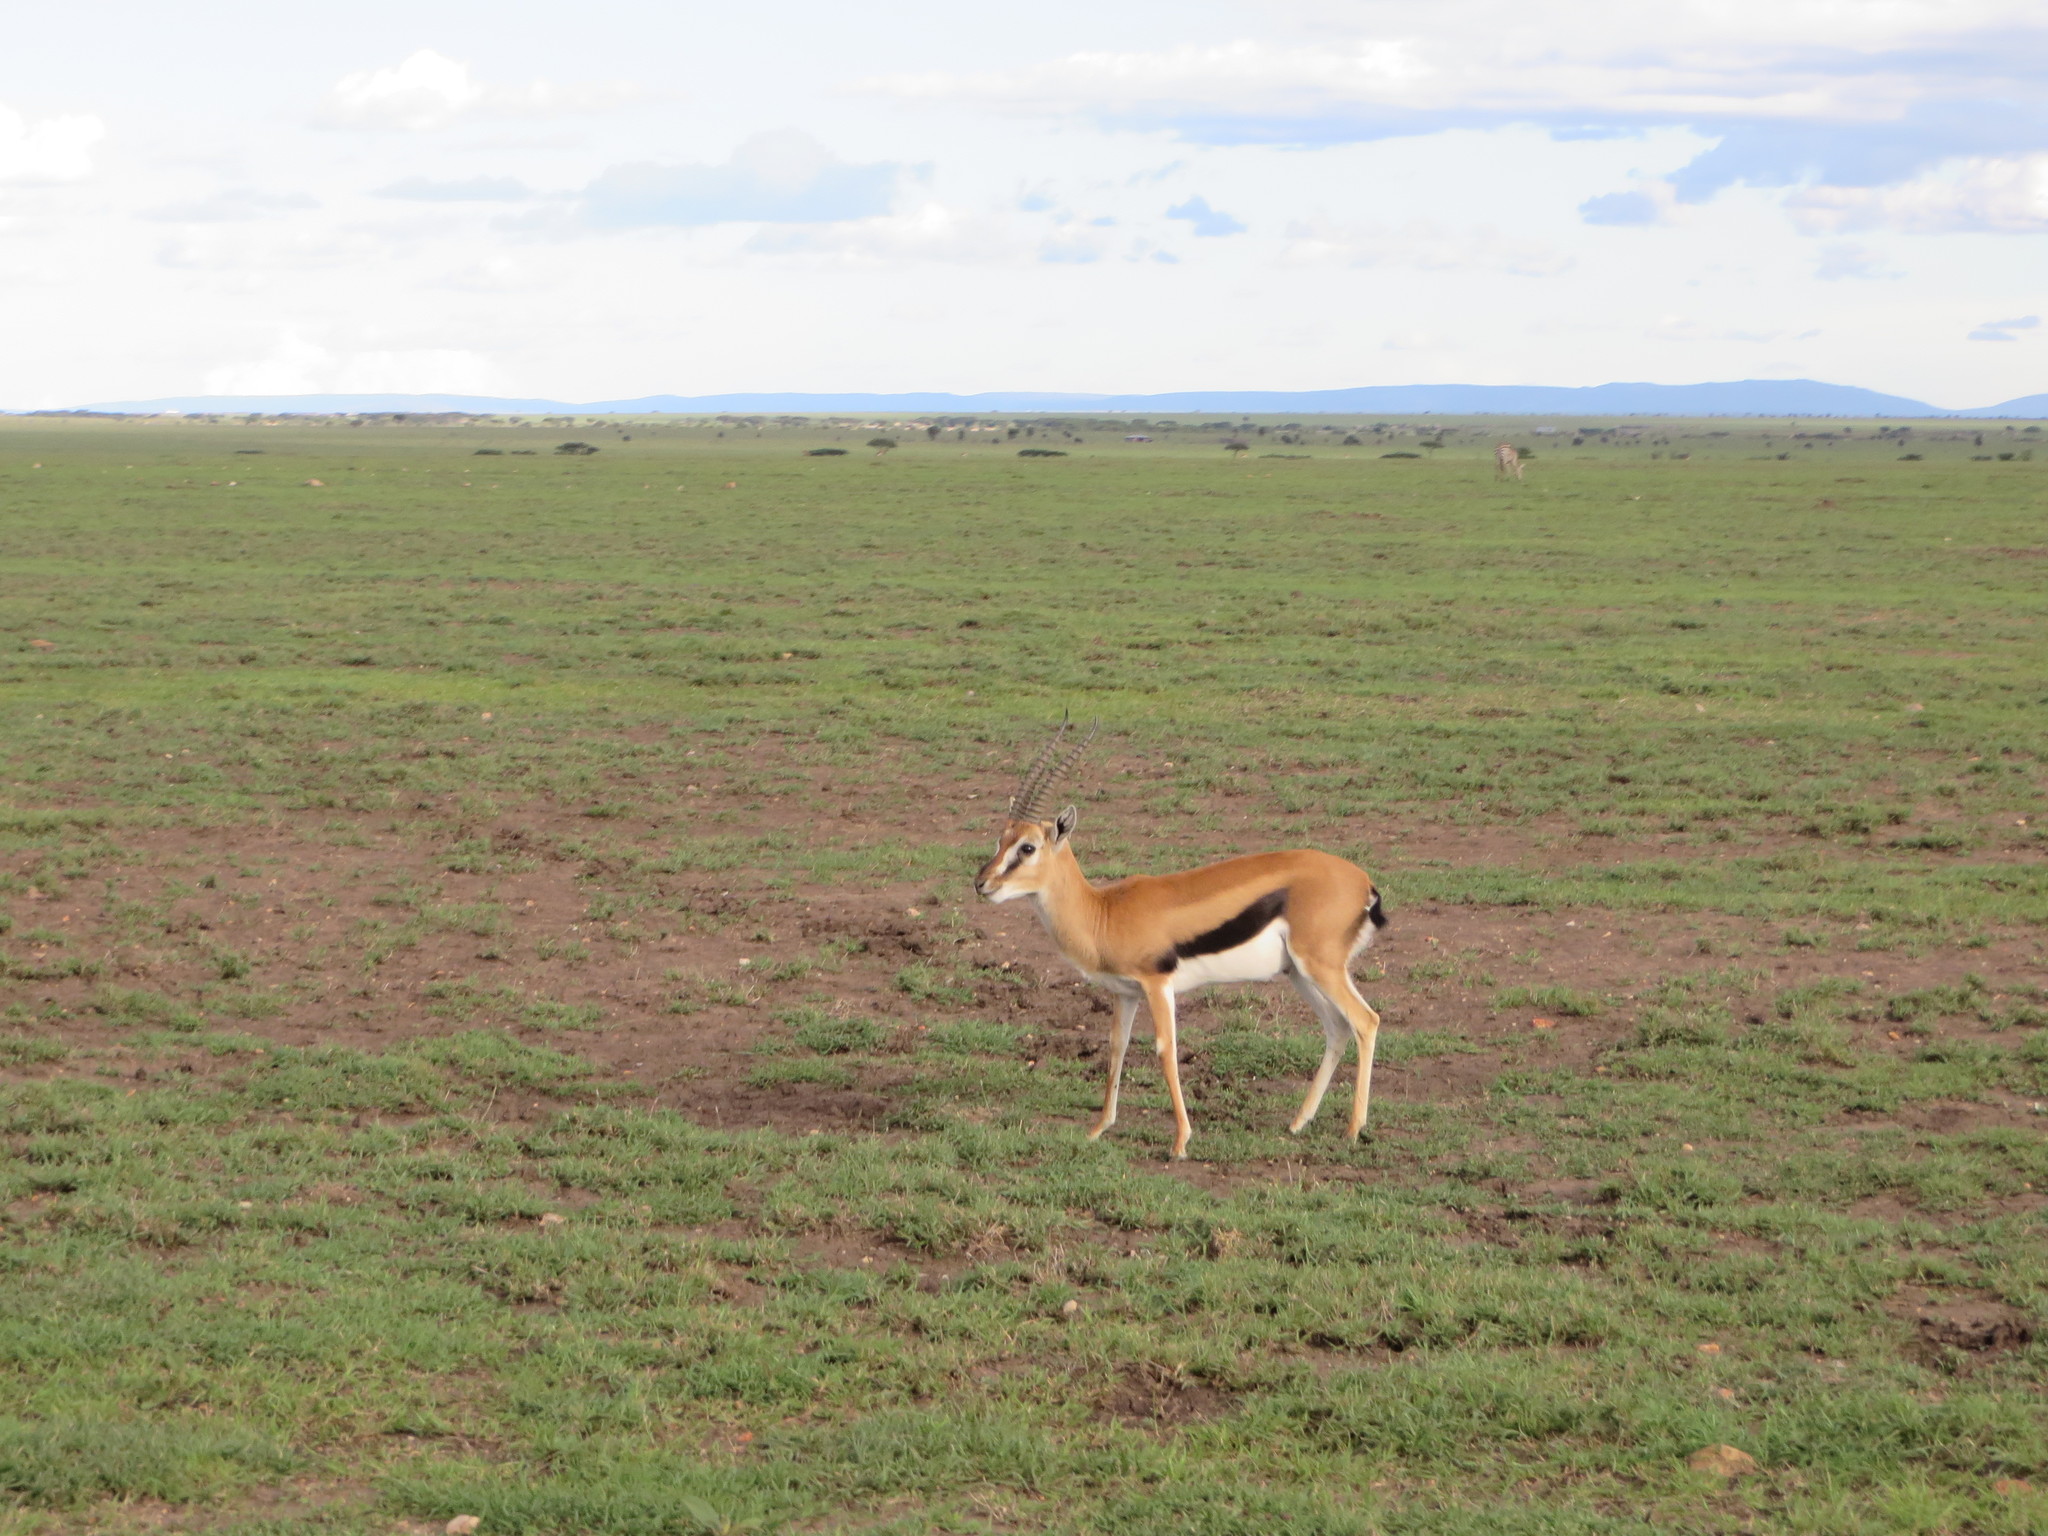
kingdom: Animalia
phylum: Chordata
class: Mammalia
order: Artiodactyla
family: Bovidae
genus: Eudorcas
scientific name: Eudorcas thomsonii
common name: Thomson's gazelle
